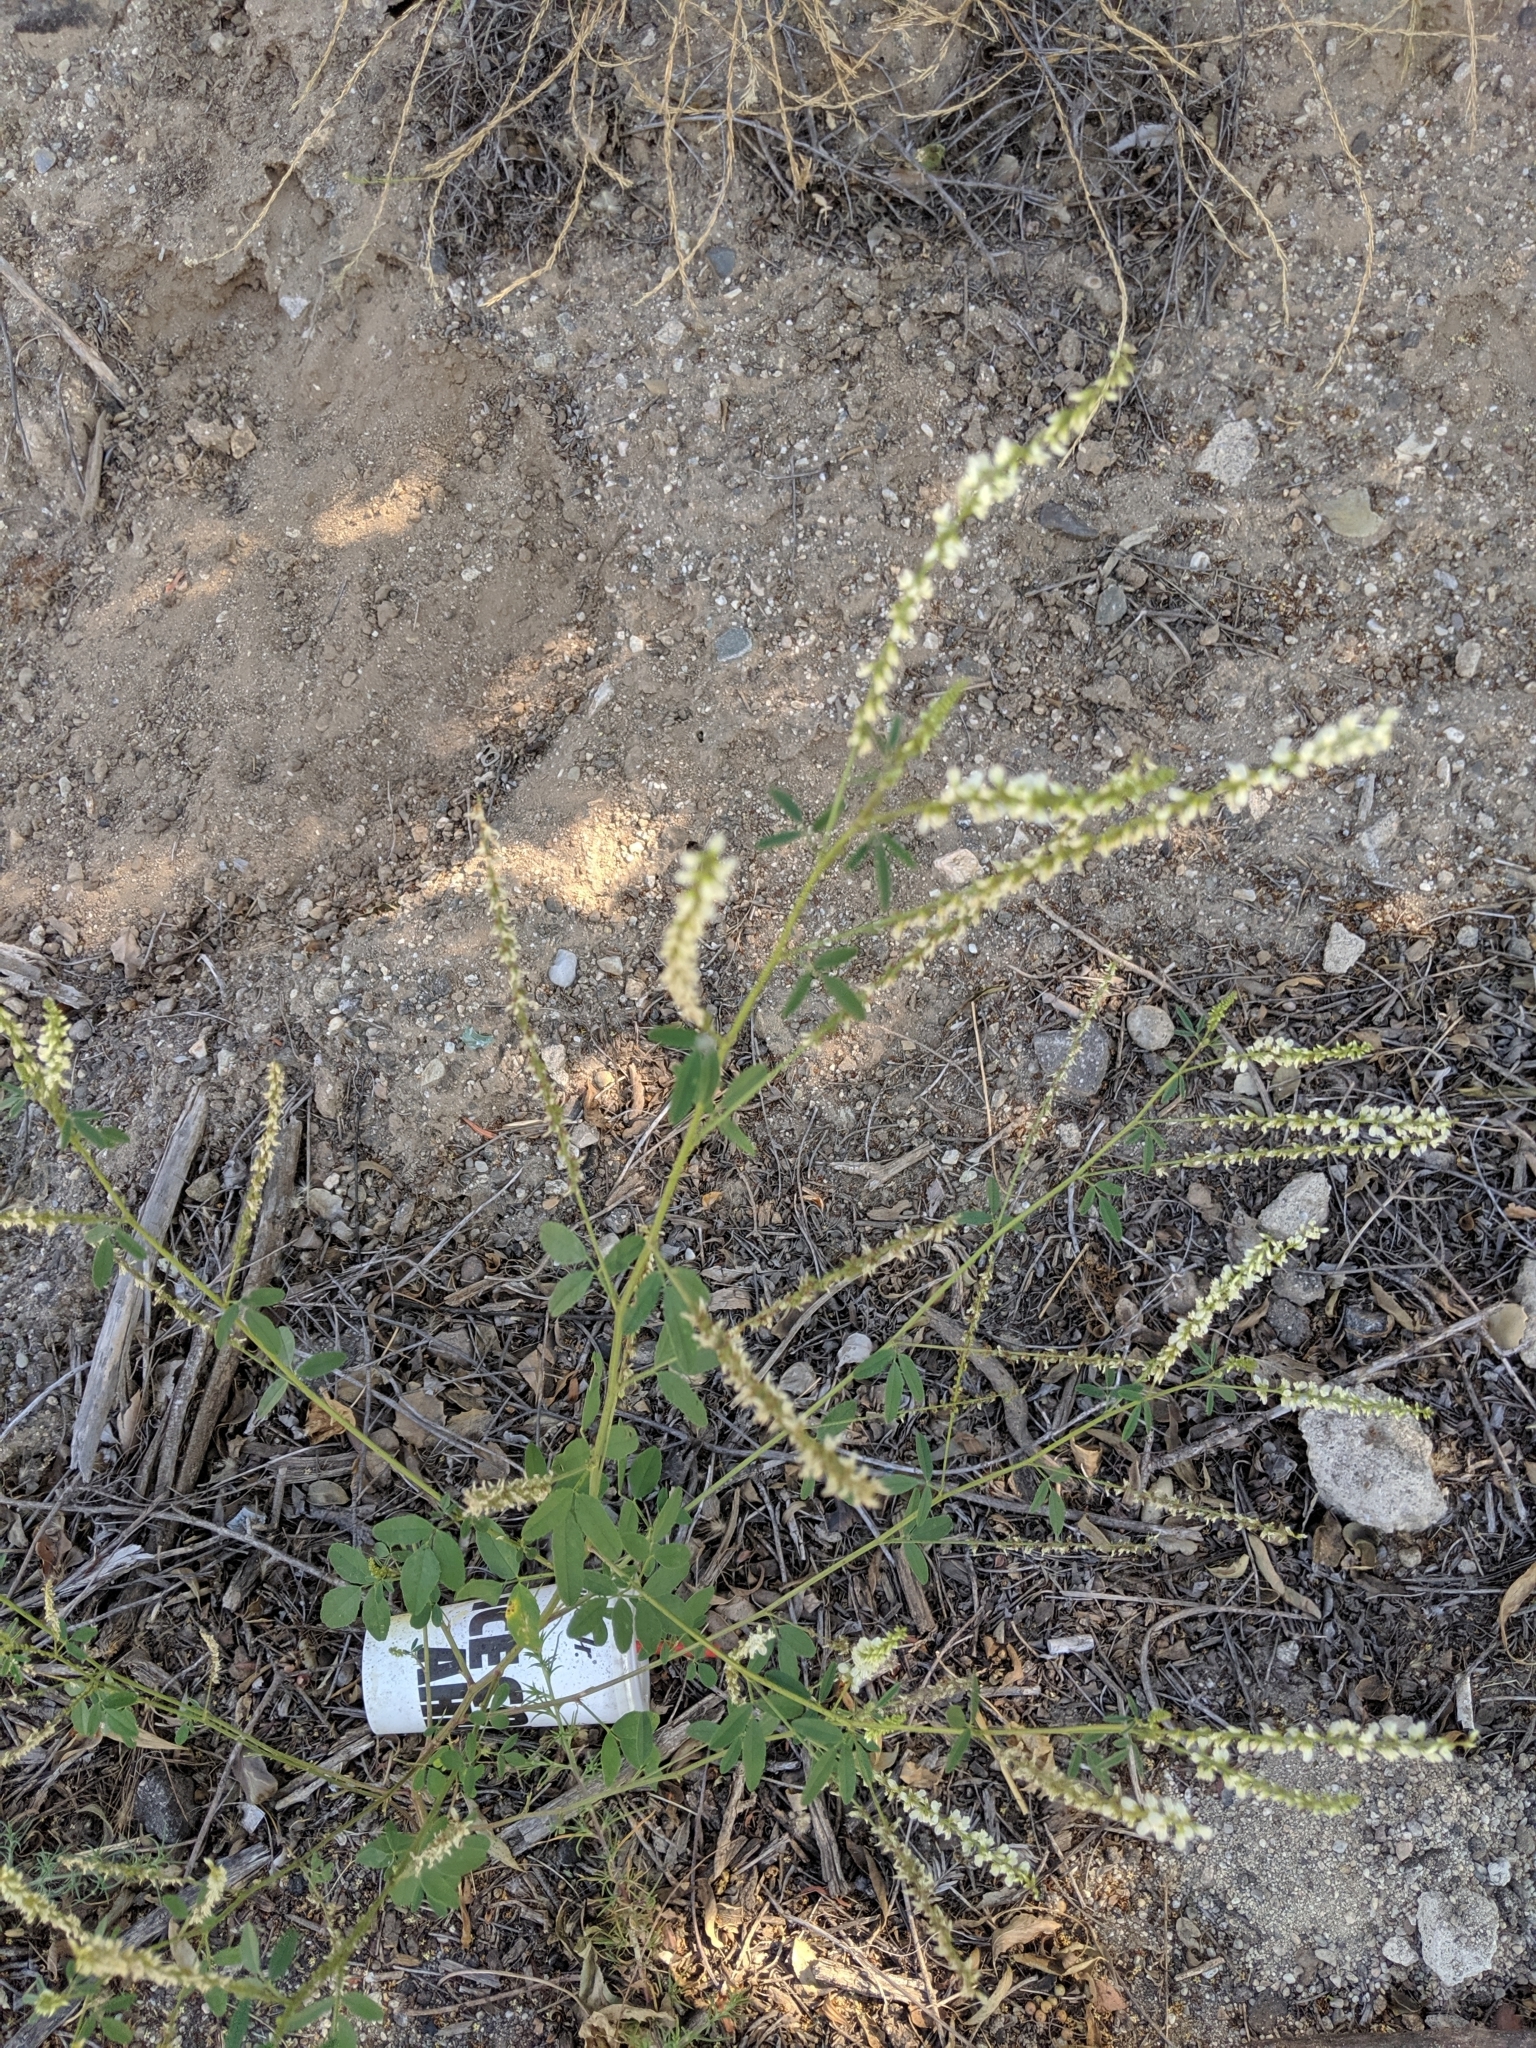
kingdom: Plantae
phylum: Tracheophyta
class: Magnoliopsida
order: Fabales
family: Fabaceae
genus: Melilotus
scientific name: Melilotus albus
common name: White melilot
